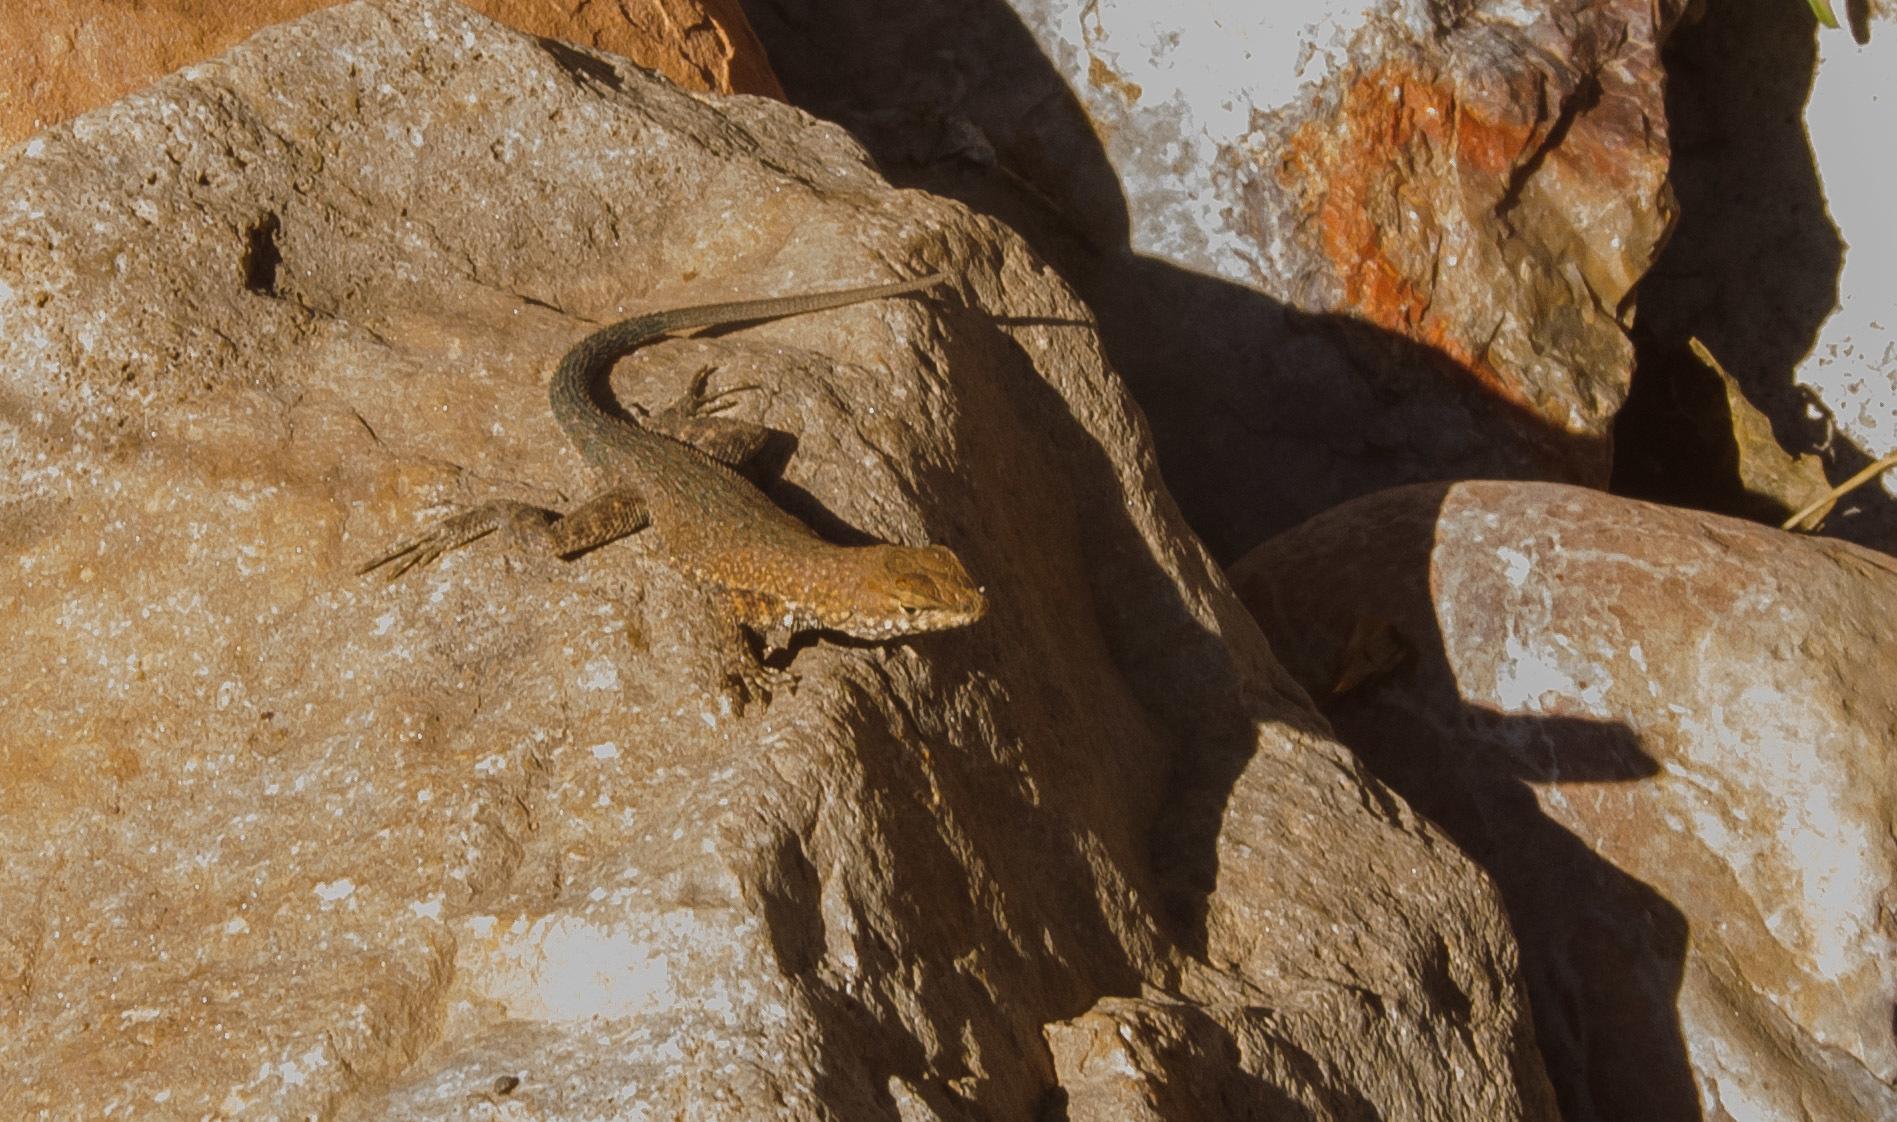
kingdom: Animalia
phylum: Chordata
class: Squamata
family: Phrynosomatidae
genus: Uta
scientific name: Uta stansburiana
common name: Side-blotched lizard
